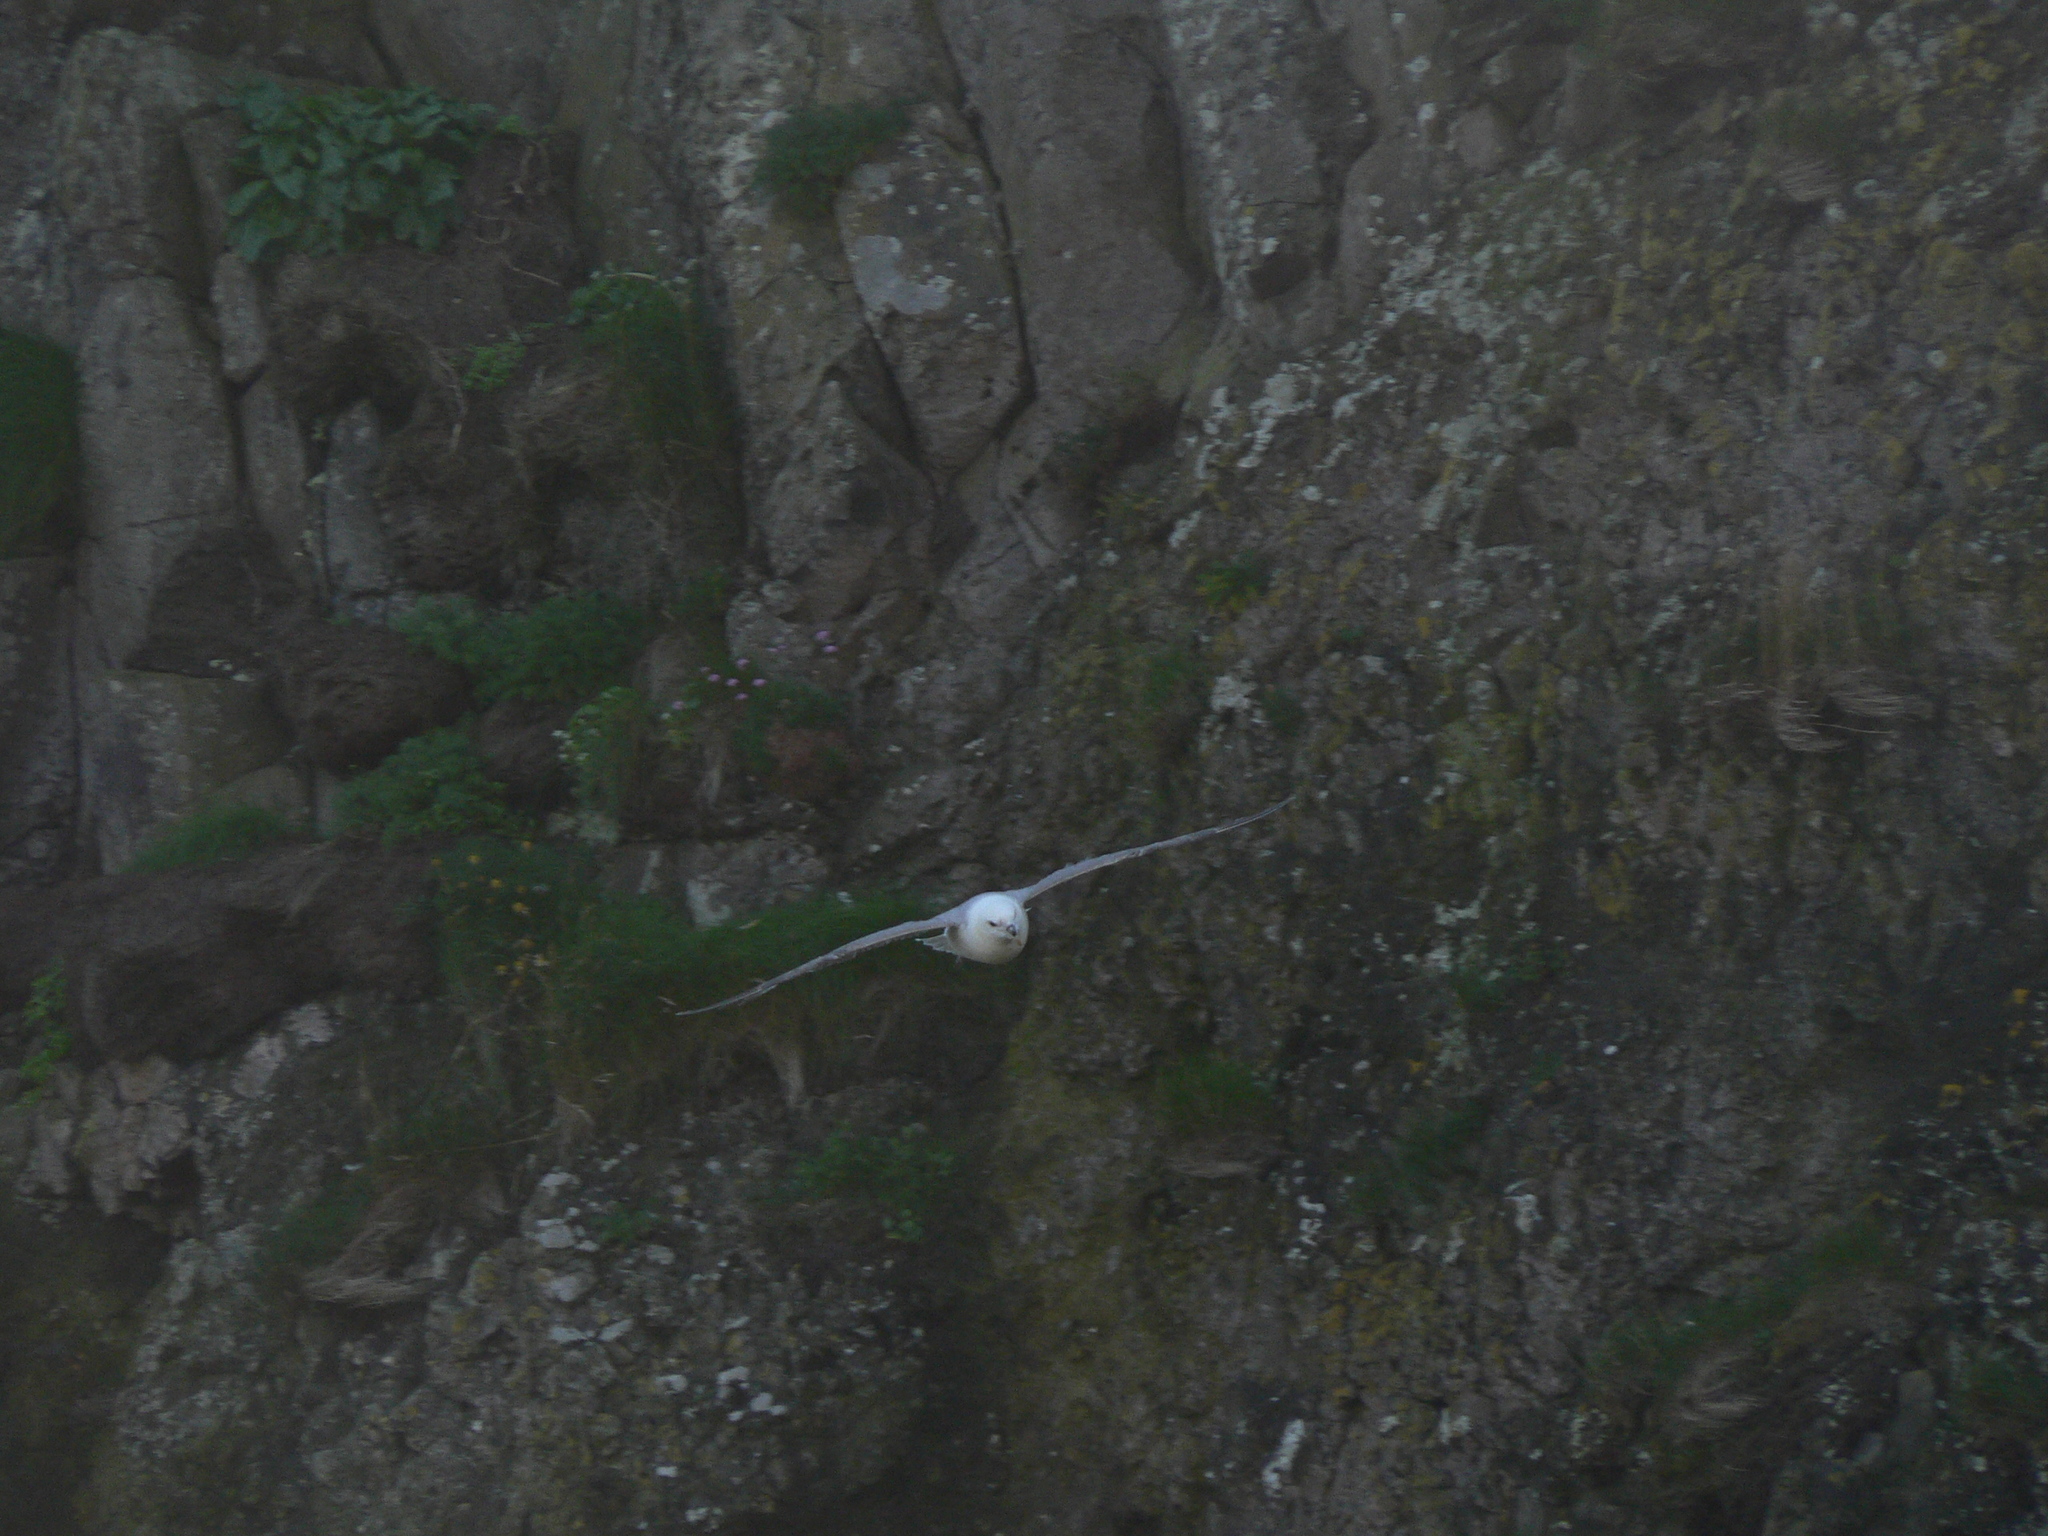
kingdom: Animalia
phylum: Chordata
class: Aves
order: Procellariiformes
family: Procellariidae
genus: Fulmarus
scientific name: Fulmarus glacialis
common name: Northern fulmar
